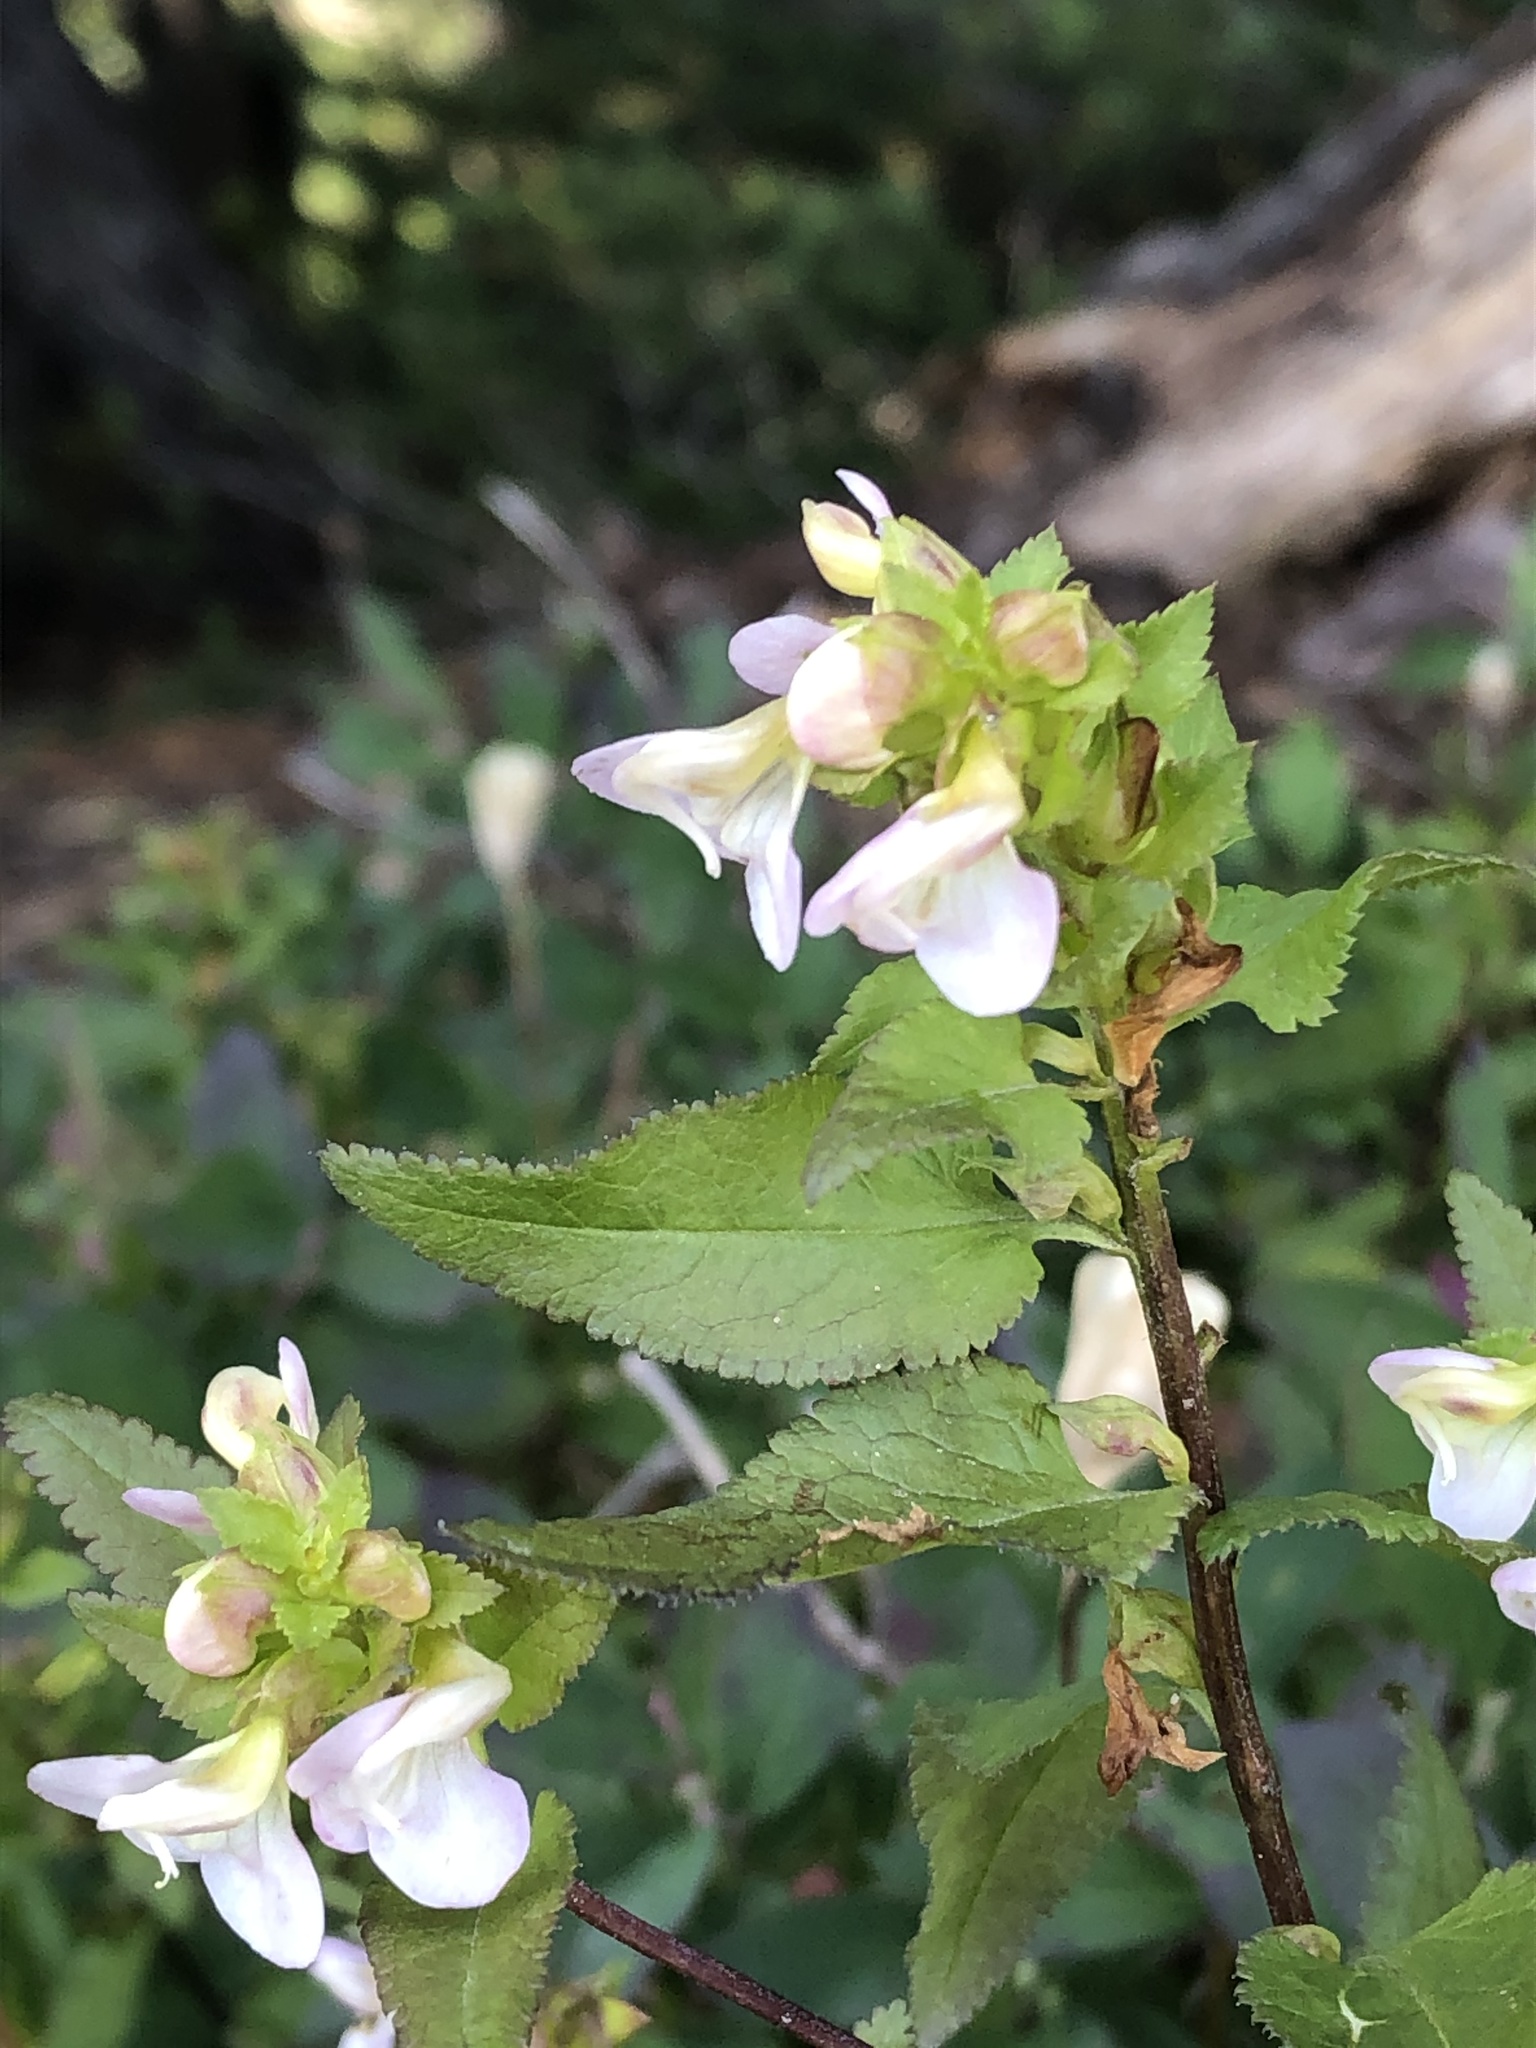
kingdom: Plantae
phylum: Tracheophyta
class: Magnoliopsida
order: Lamiales
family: Orobanchaceae
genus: Pedicularis
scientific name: Pedicularis racemosa
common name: Leafy lousewort
